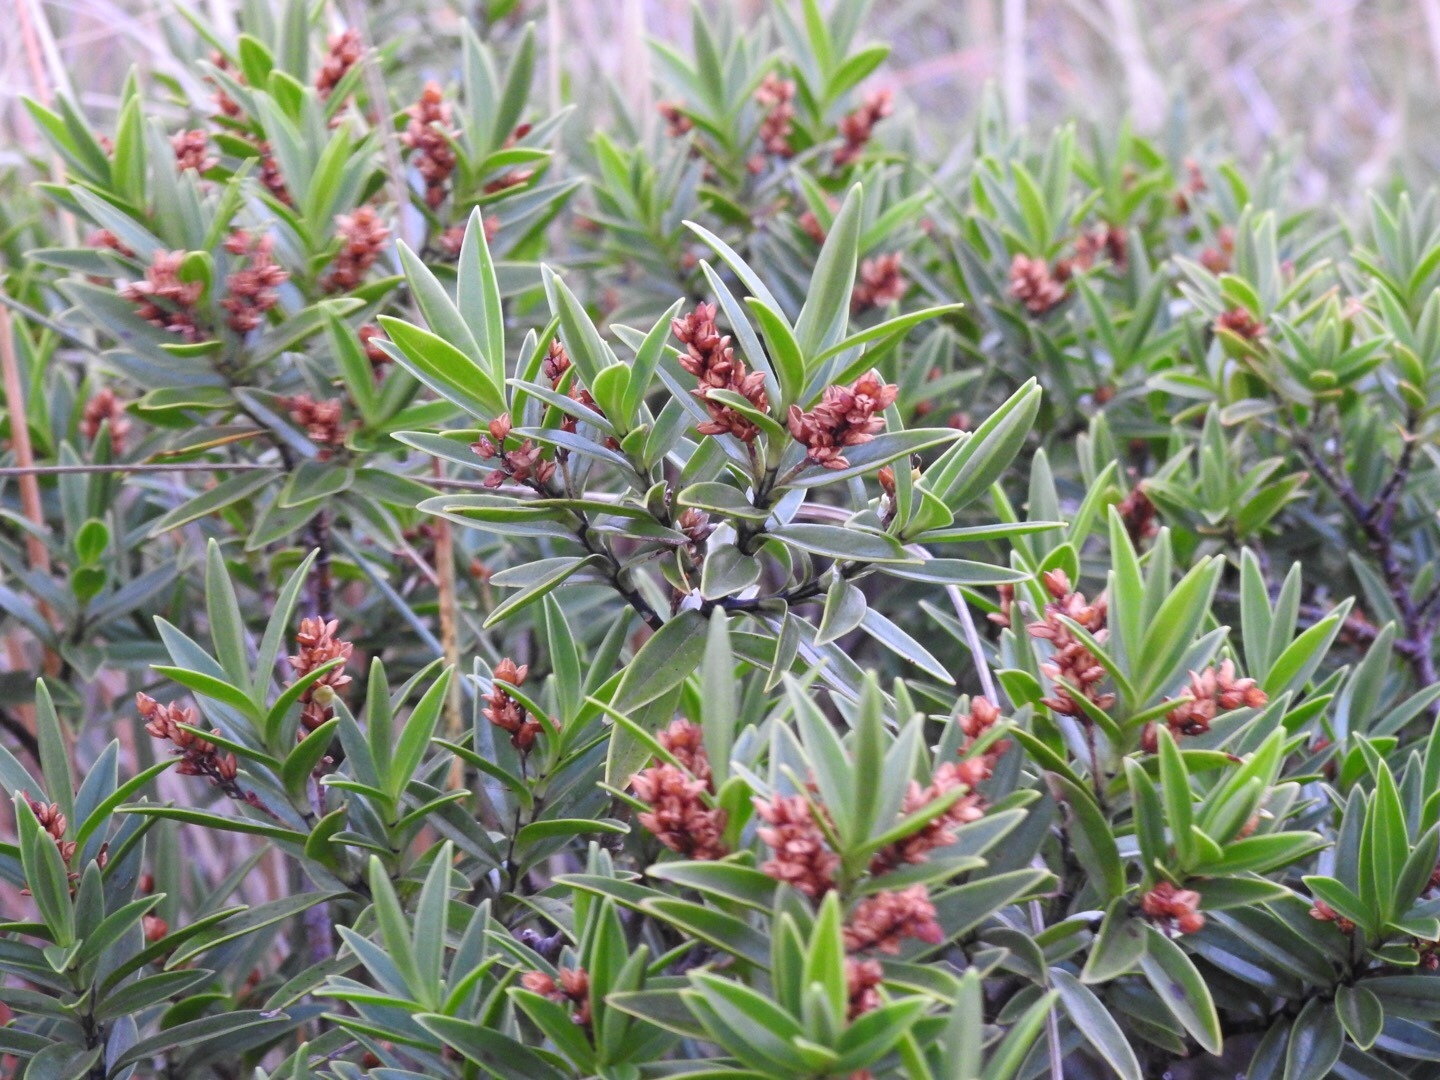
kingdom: Plantae
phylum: Tracheophyta
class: Magnoliopsida
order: Lamiales
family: Plantaginaceae
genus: Veronica
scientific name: Veronica subalpina
